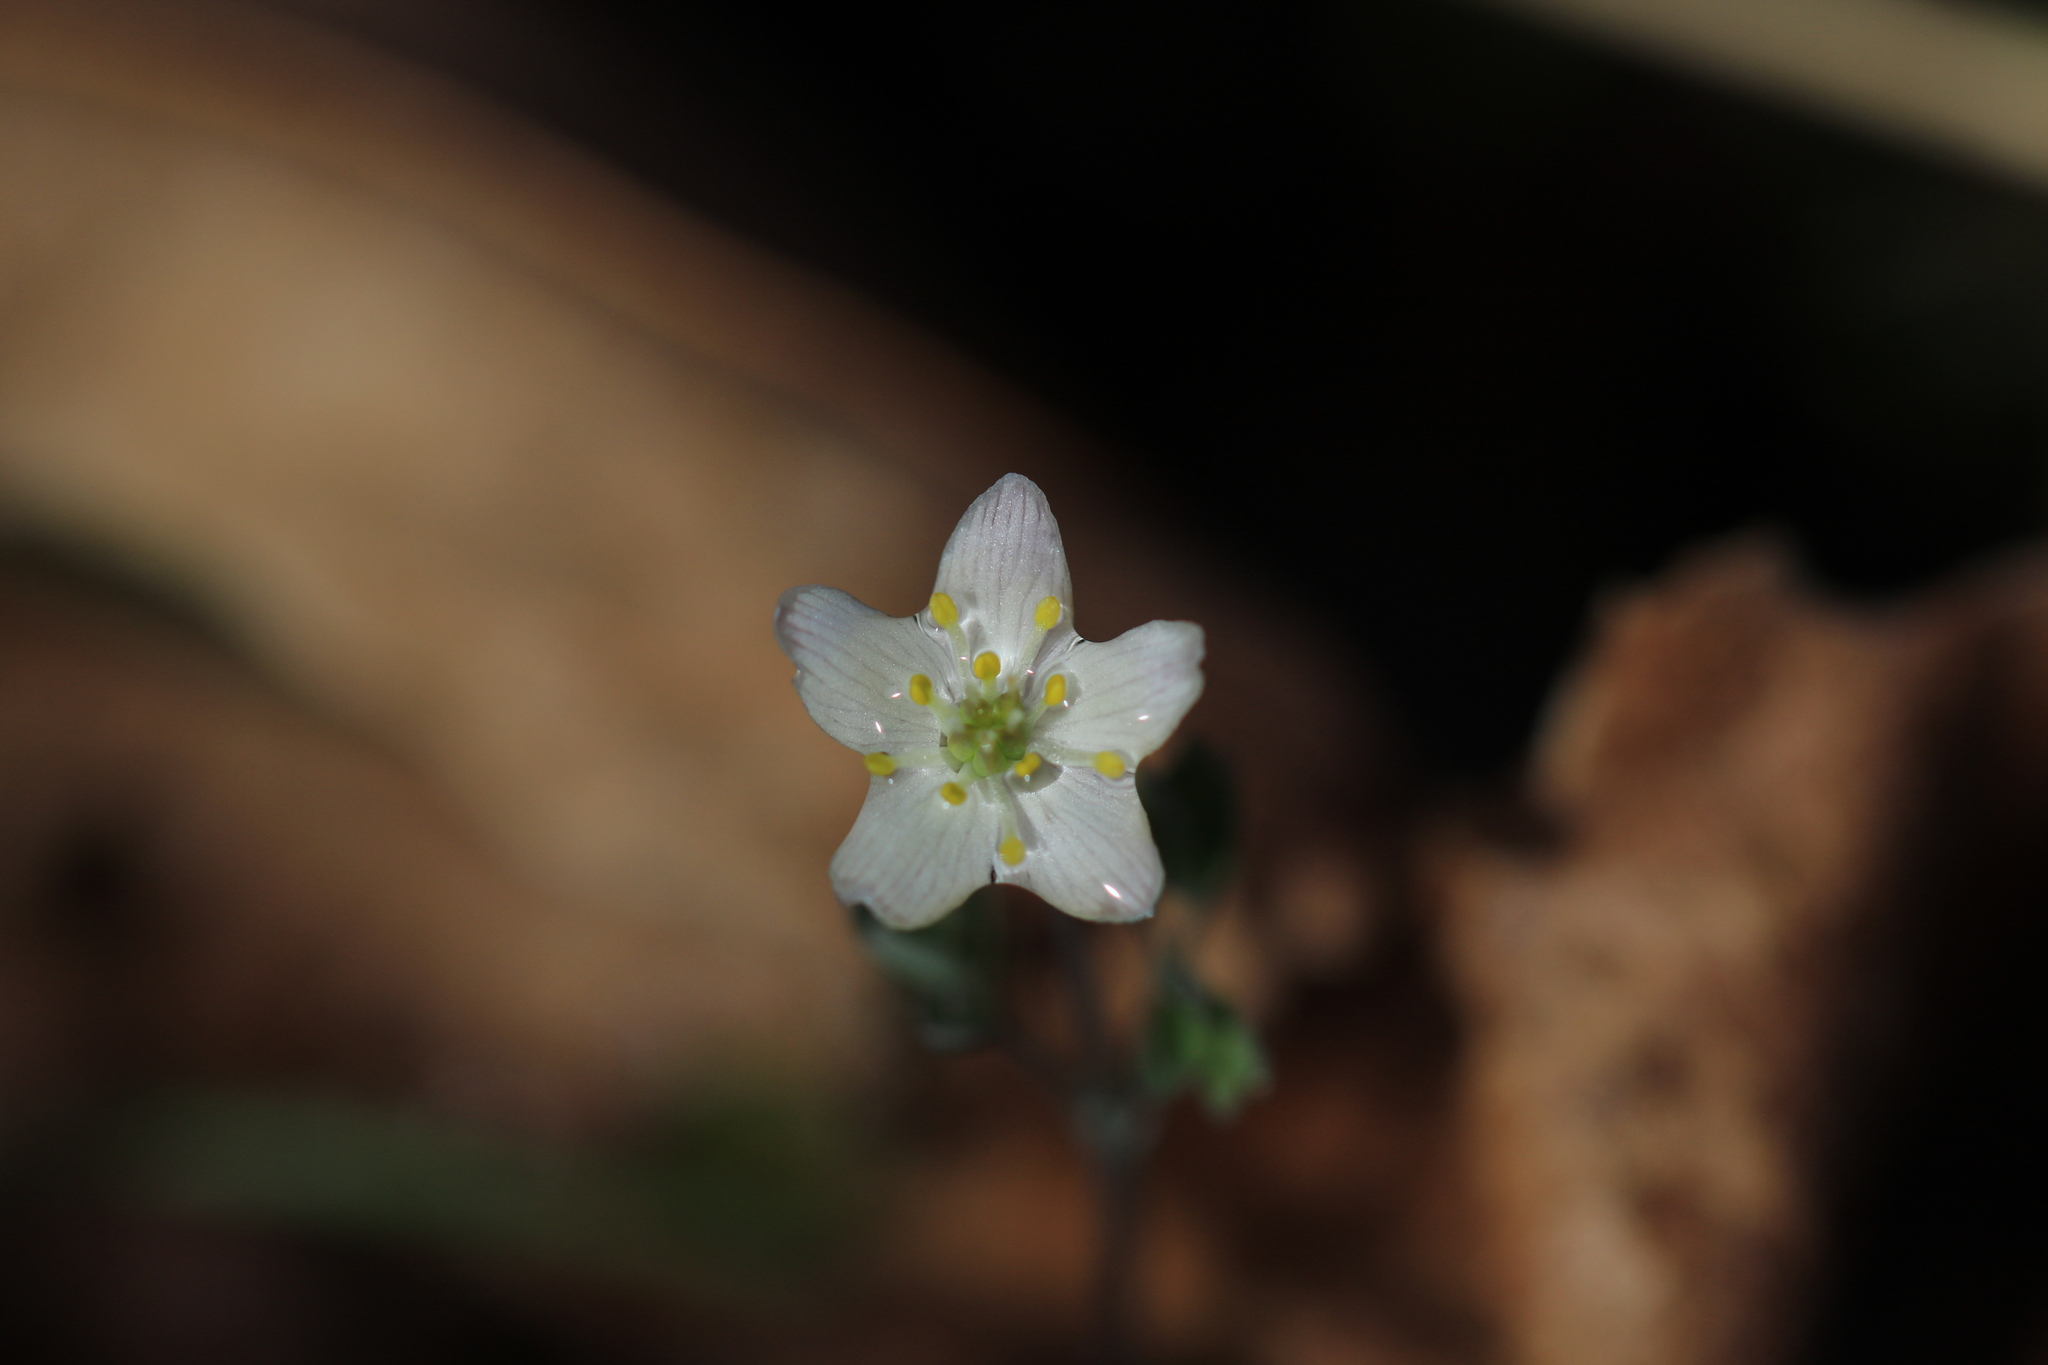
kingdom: Plantae
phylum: Tracheophyta
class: Magnoliopsida
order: Ranunculales
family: Ranunculaceae
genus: Enemion
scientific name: Enemion stipitatum
